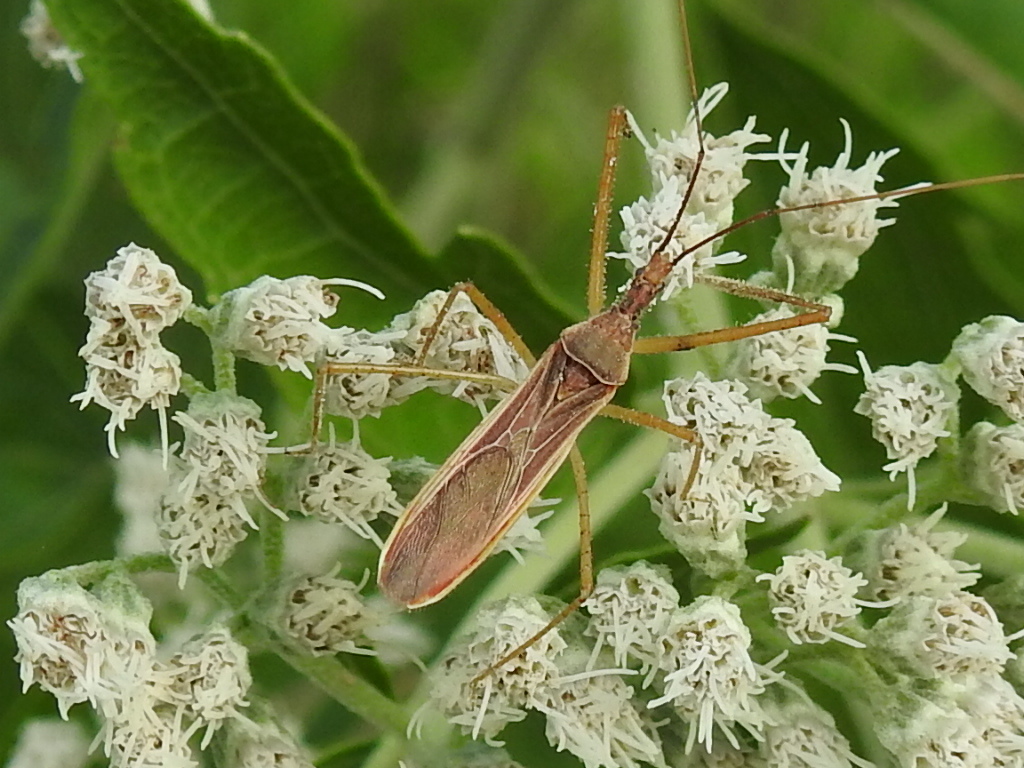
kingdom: Animalia
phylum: Arthropoda
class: Insecta
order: Hemiptera
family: Reduviidae
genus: Zelus
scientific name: Zelus cervicalis
